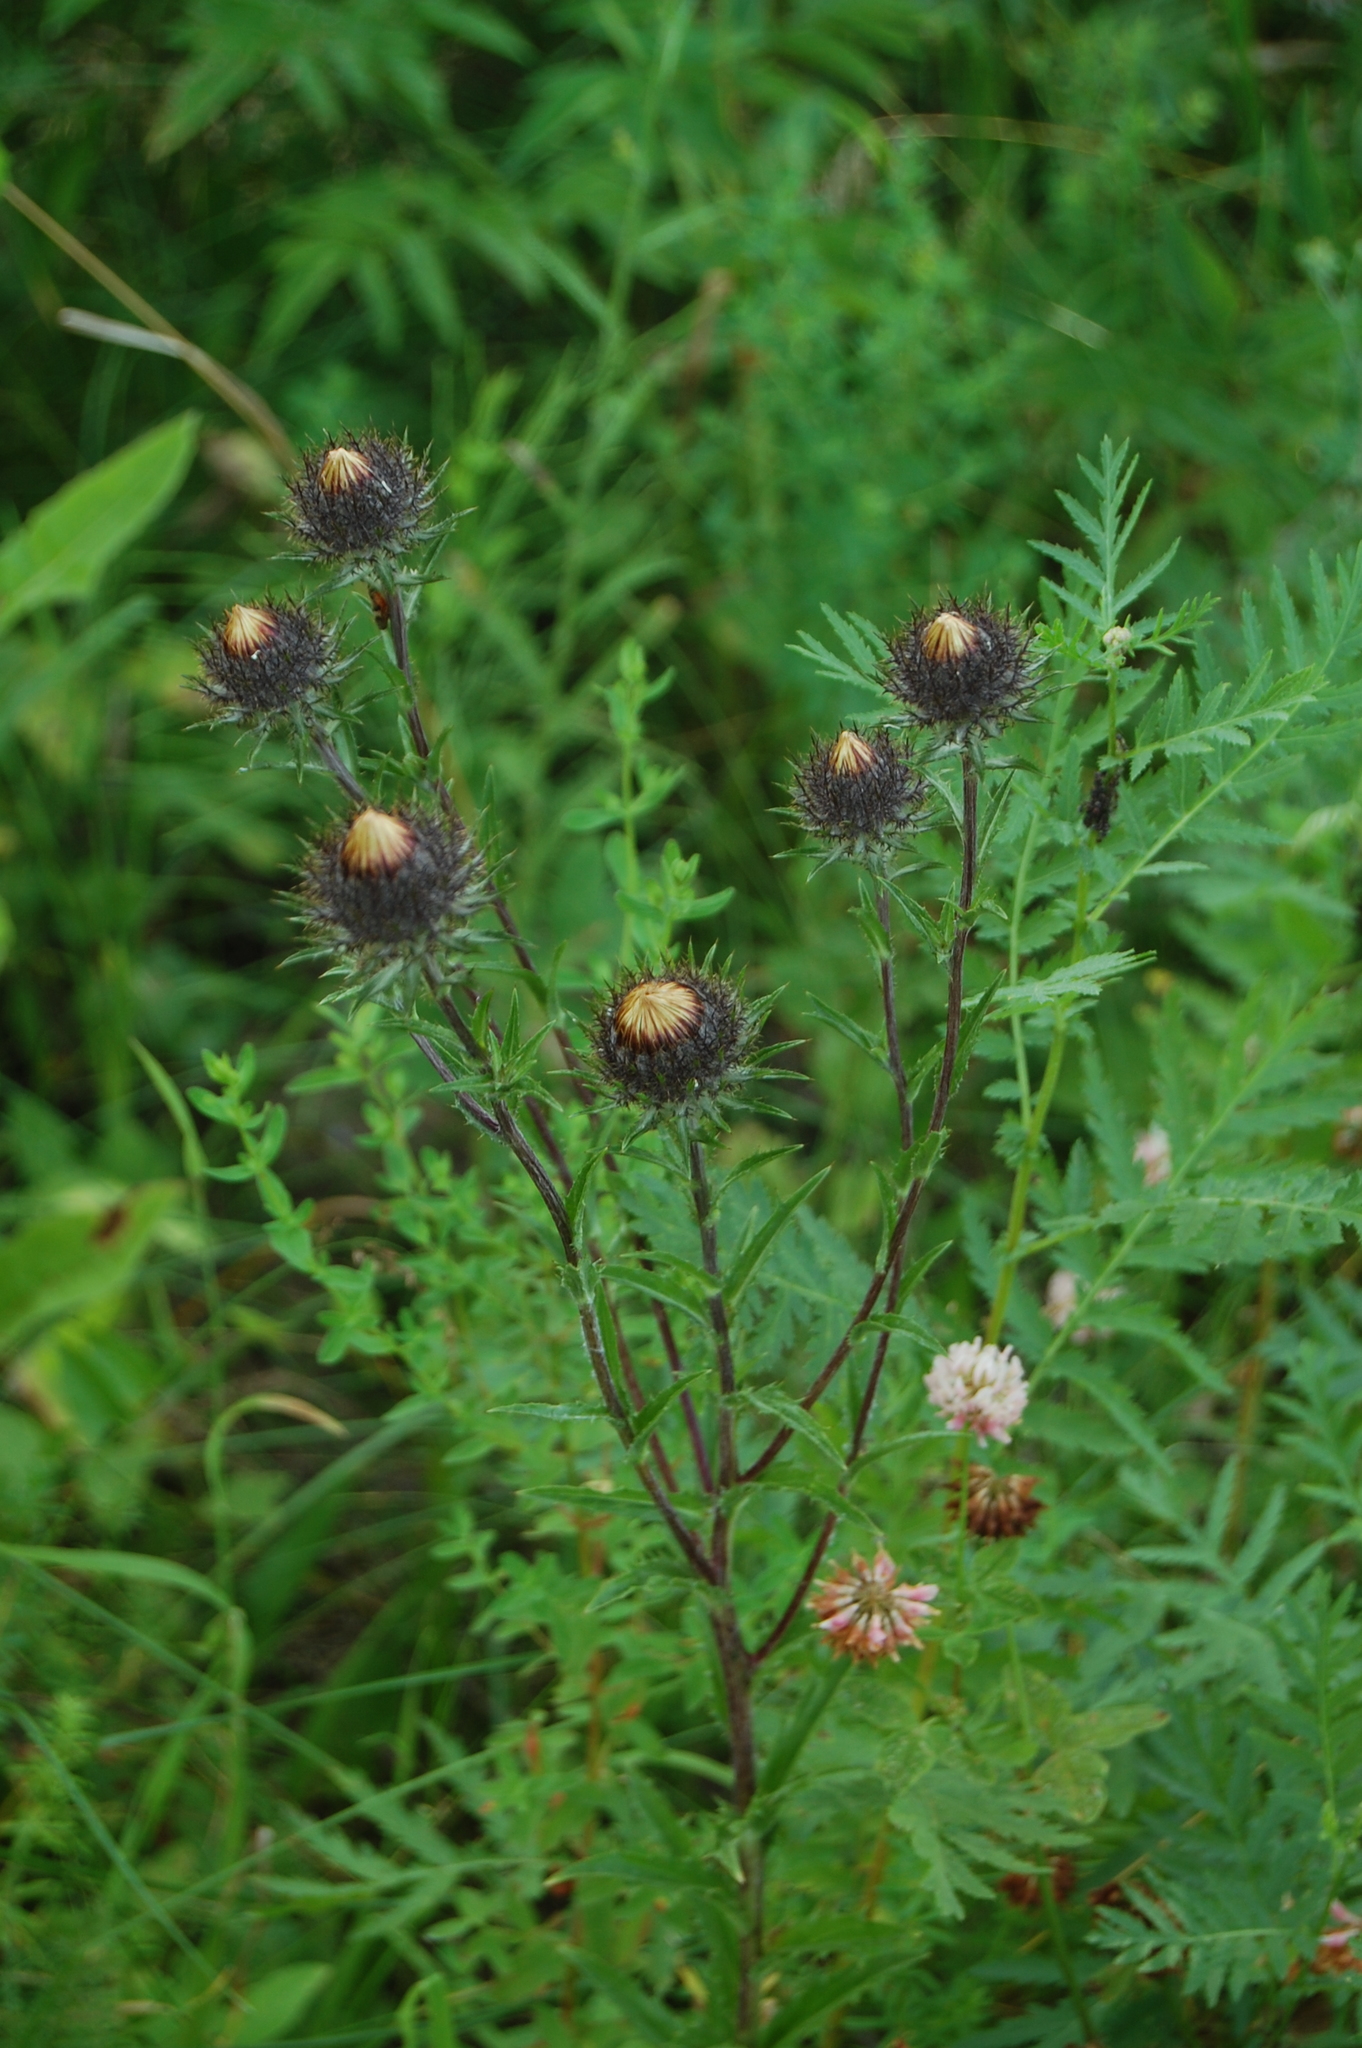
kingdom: Plantae
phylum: Tracheophyta
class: Magnoliopsida
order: Asterales
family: Asteraceae
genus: Carlina
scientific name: Carlina biebersteinii
